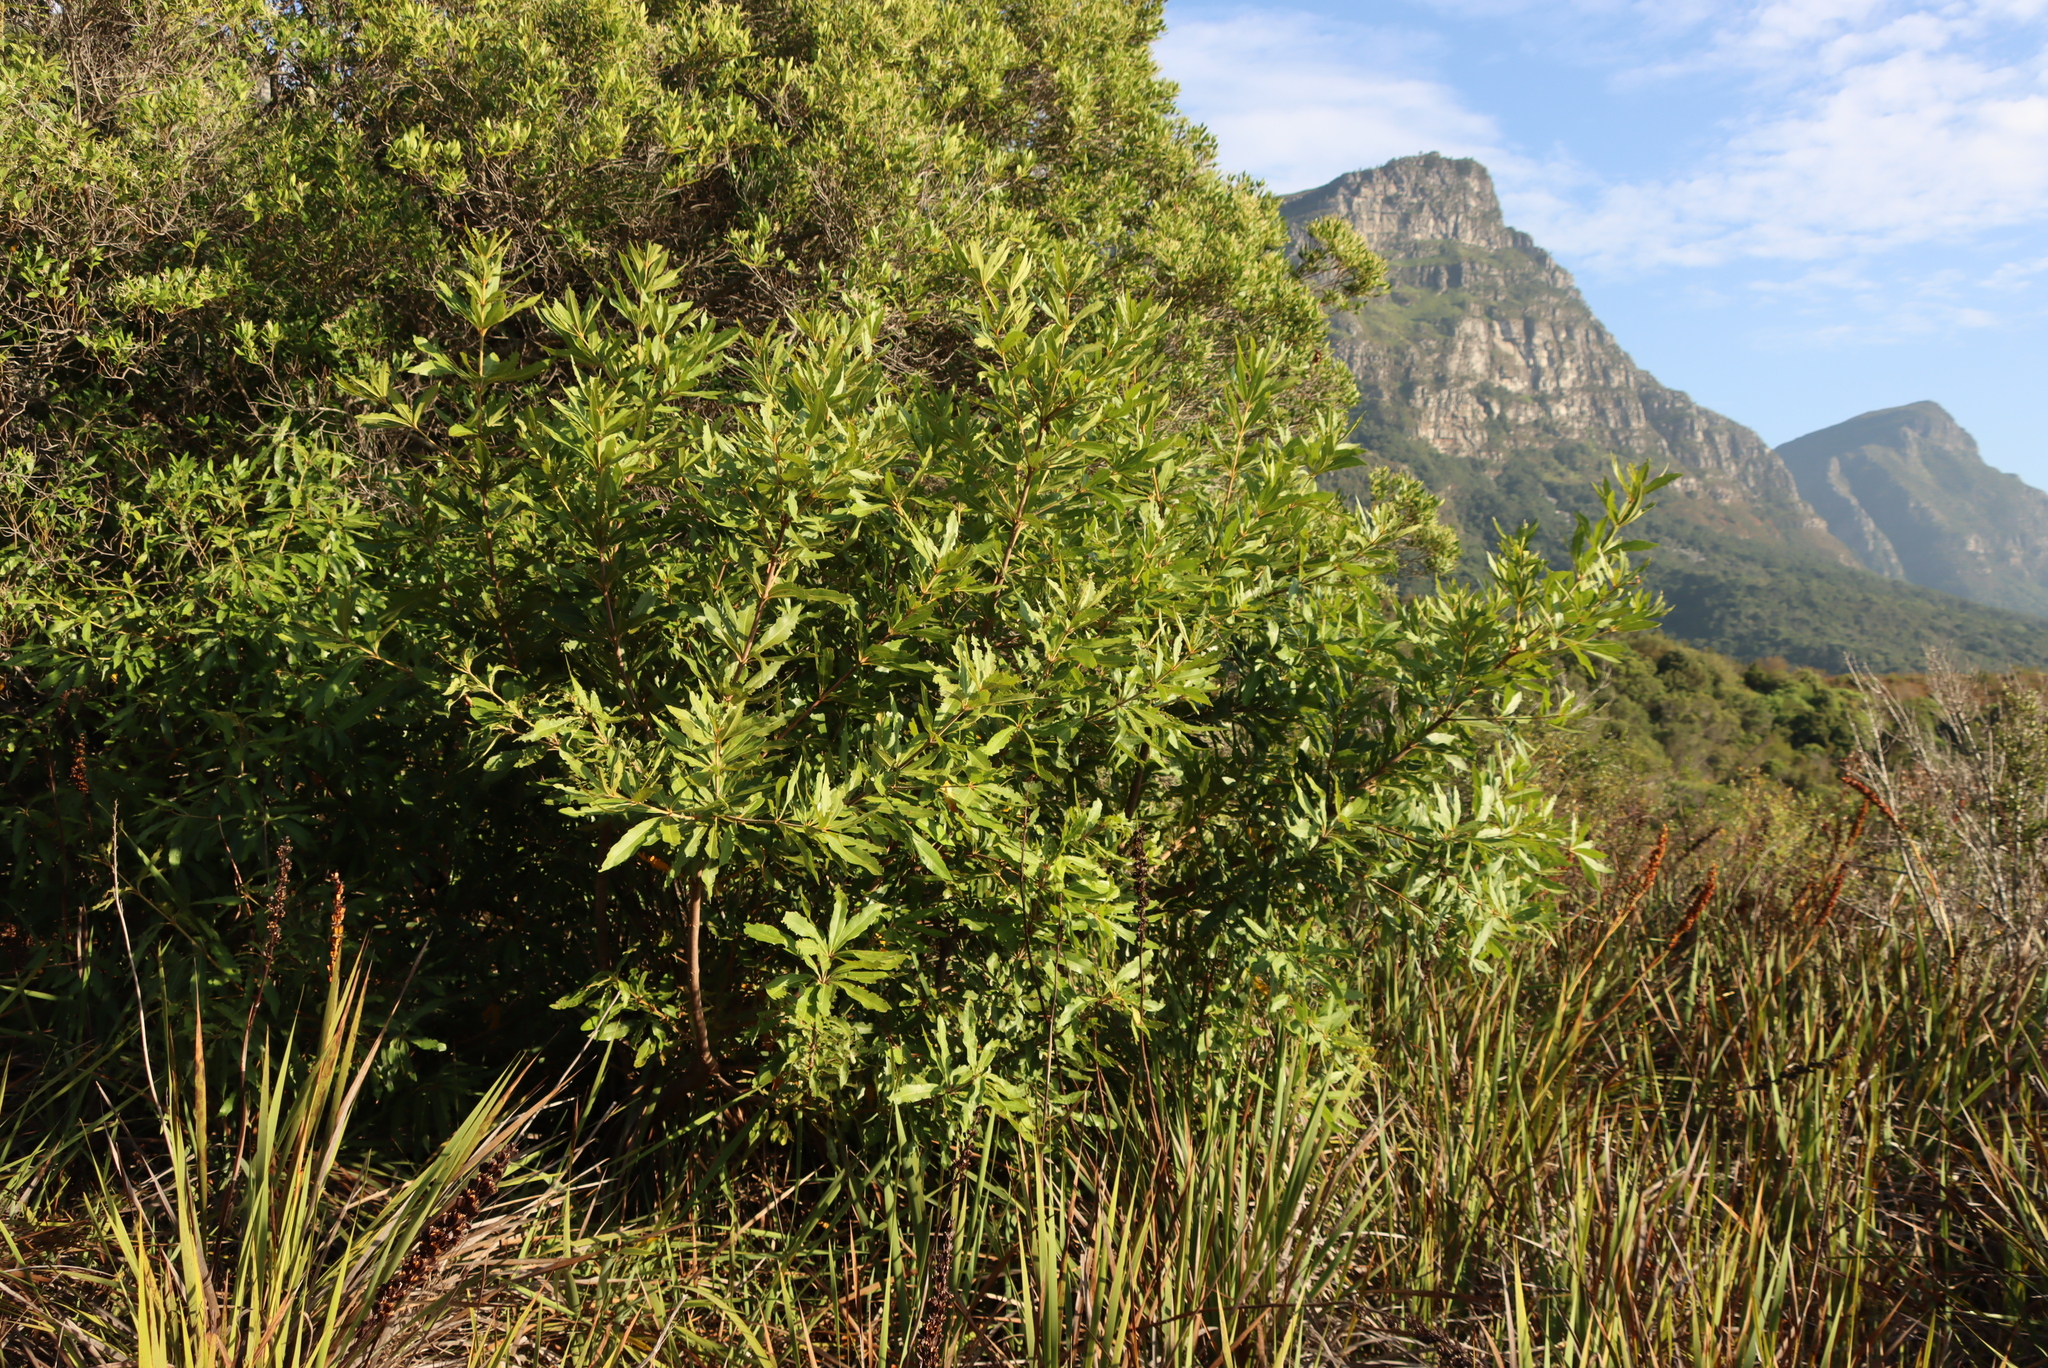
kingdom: Plantae
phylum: Tracheophyta
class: Magnoliopsida
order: Proteales
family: Proteaceae
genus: Brabejum
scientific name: Brabejum stellatifolium
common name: Wild almond
